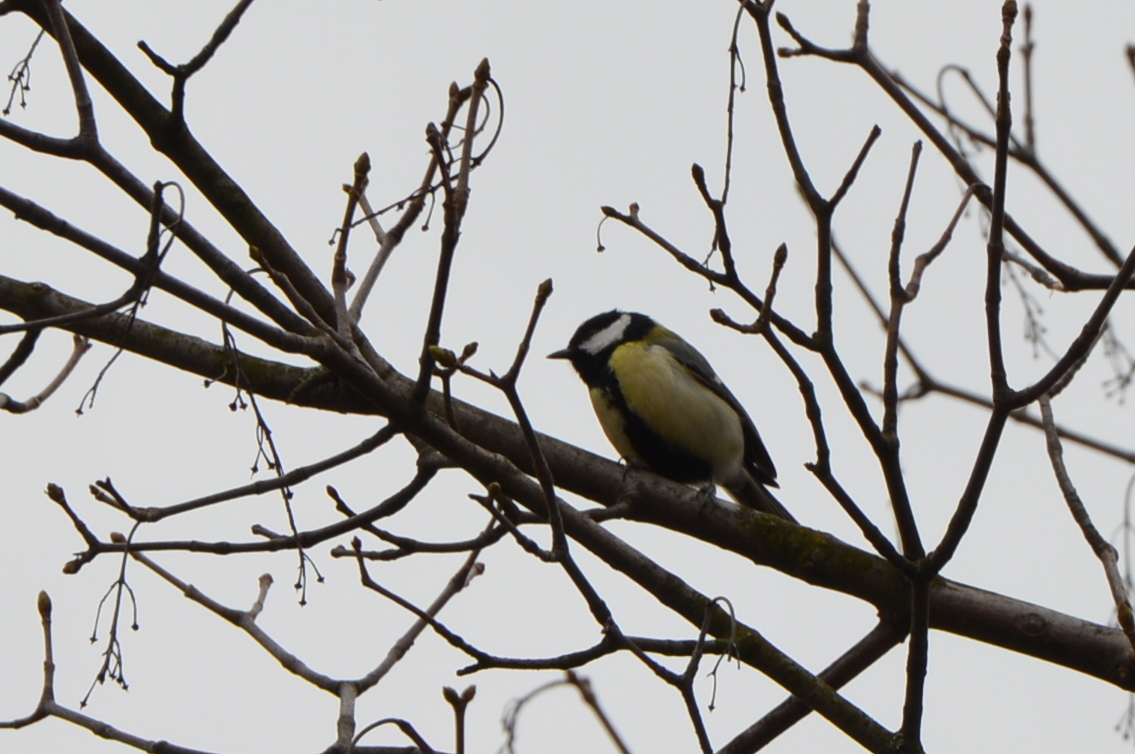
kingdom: Animalia
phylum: Chordata
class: Aves
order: Passeriformes
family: Paridae
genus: Parus
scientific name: Parus major
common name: Great tit
